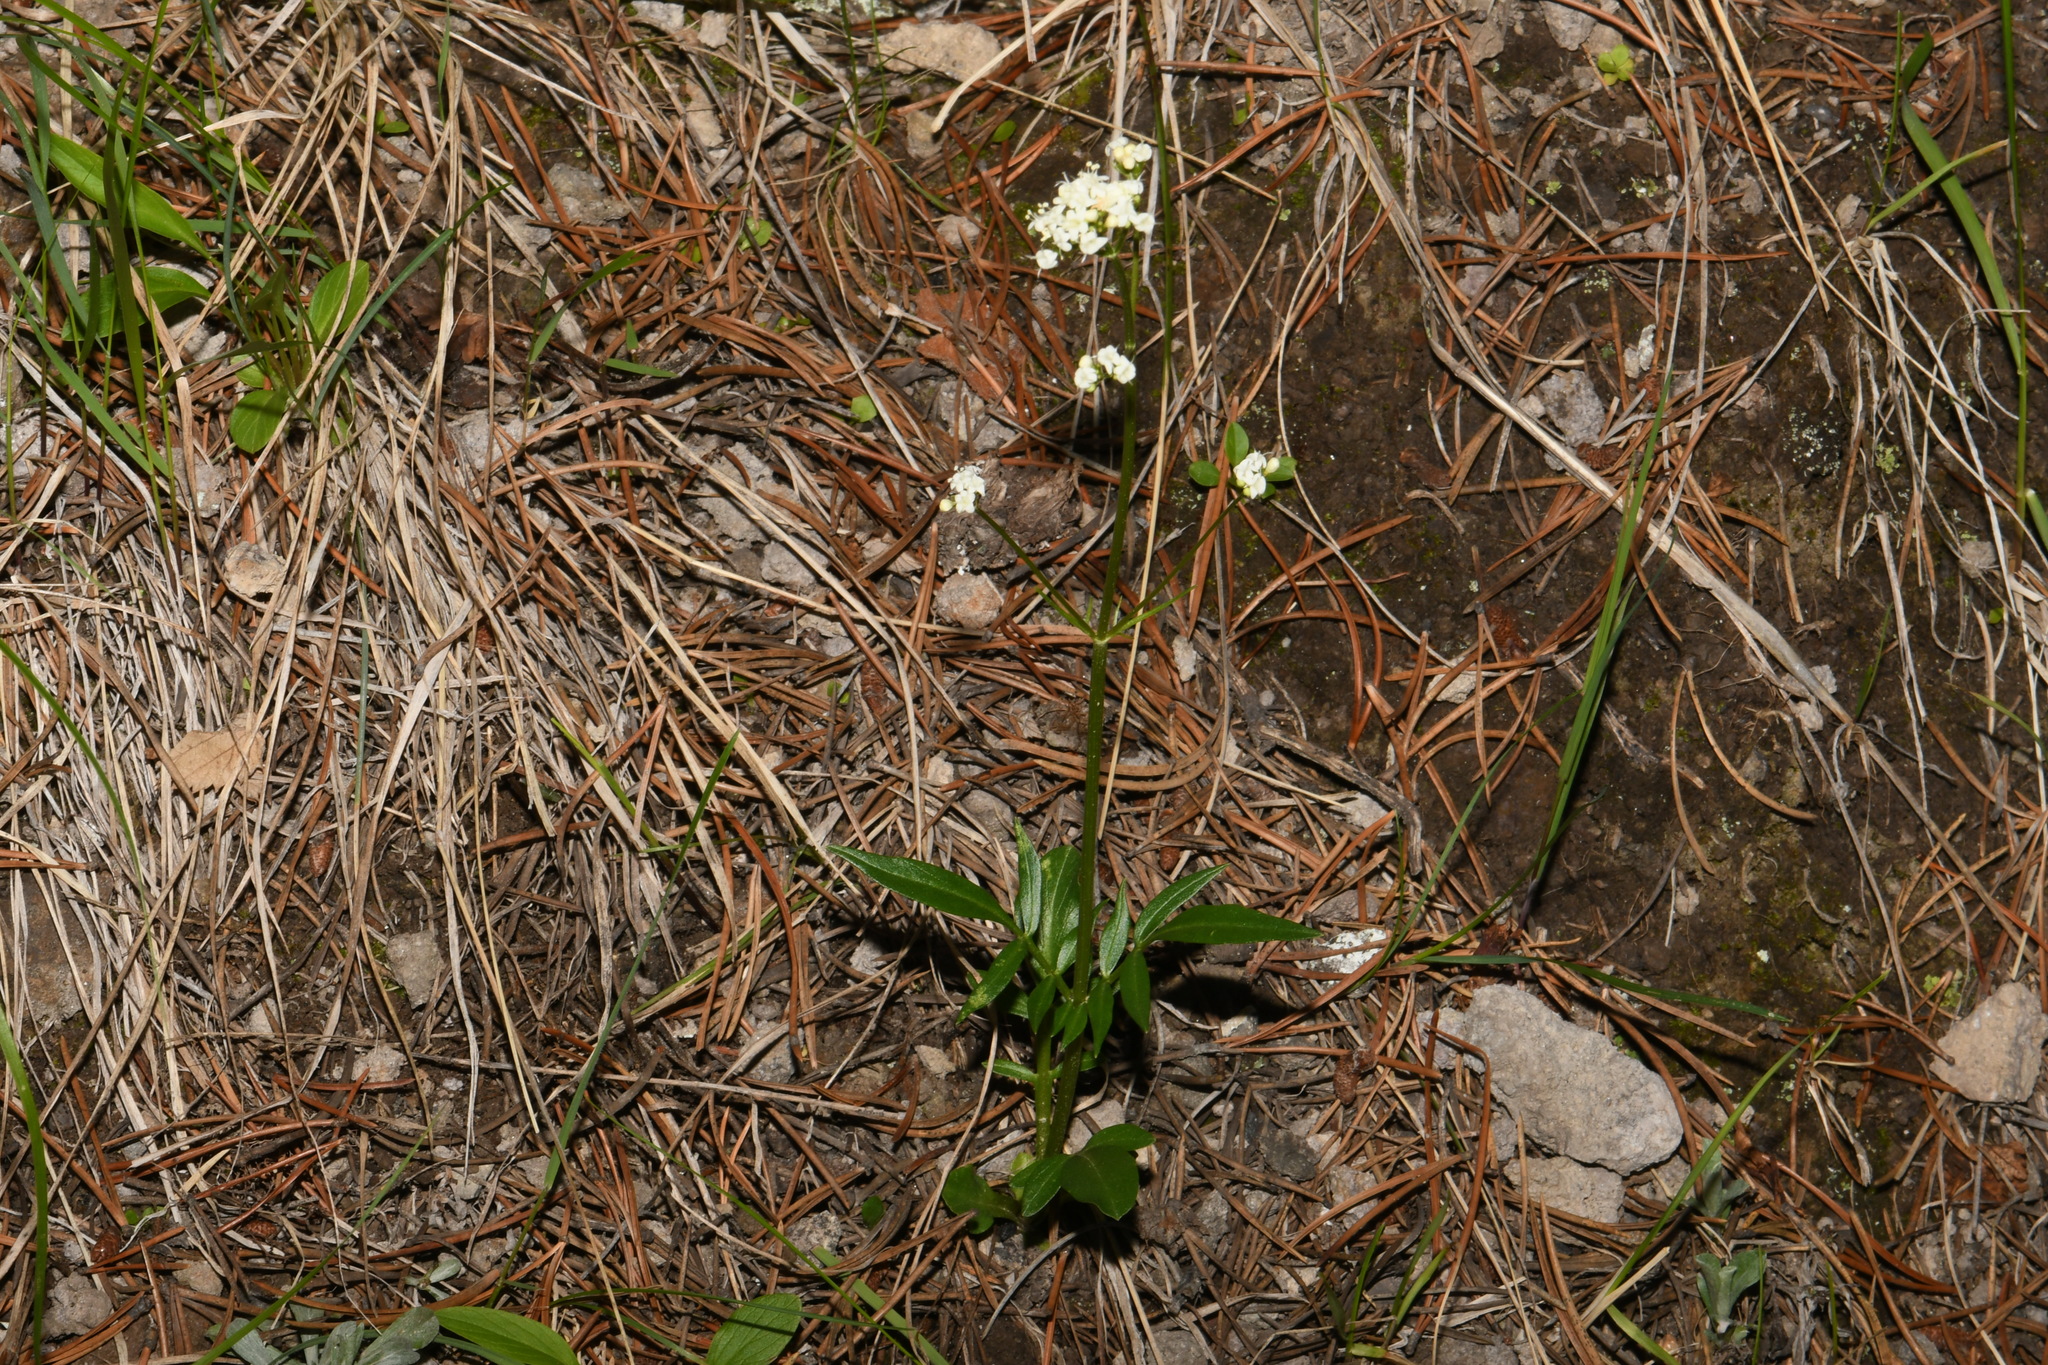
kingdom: Plantae
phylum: Tracheophyta
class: Magnoliopsida
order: Dipsacales
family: Caprifoliaceae
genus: Valeriana
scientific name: Valeriana occidentalis
